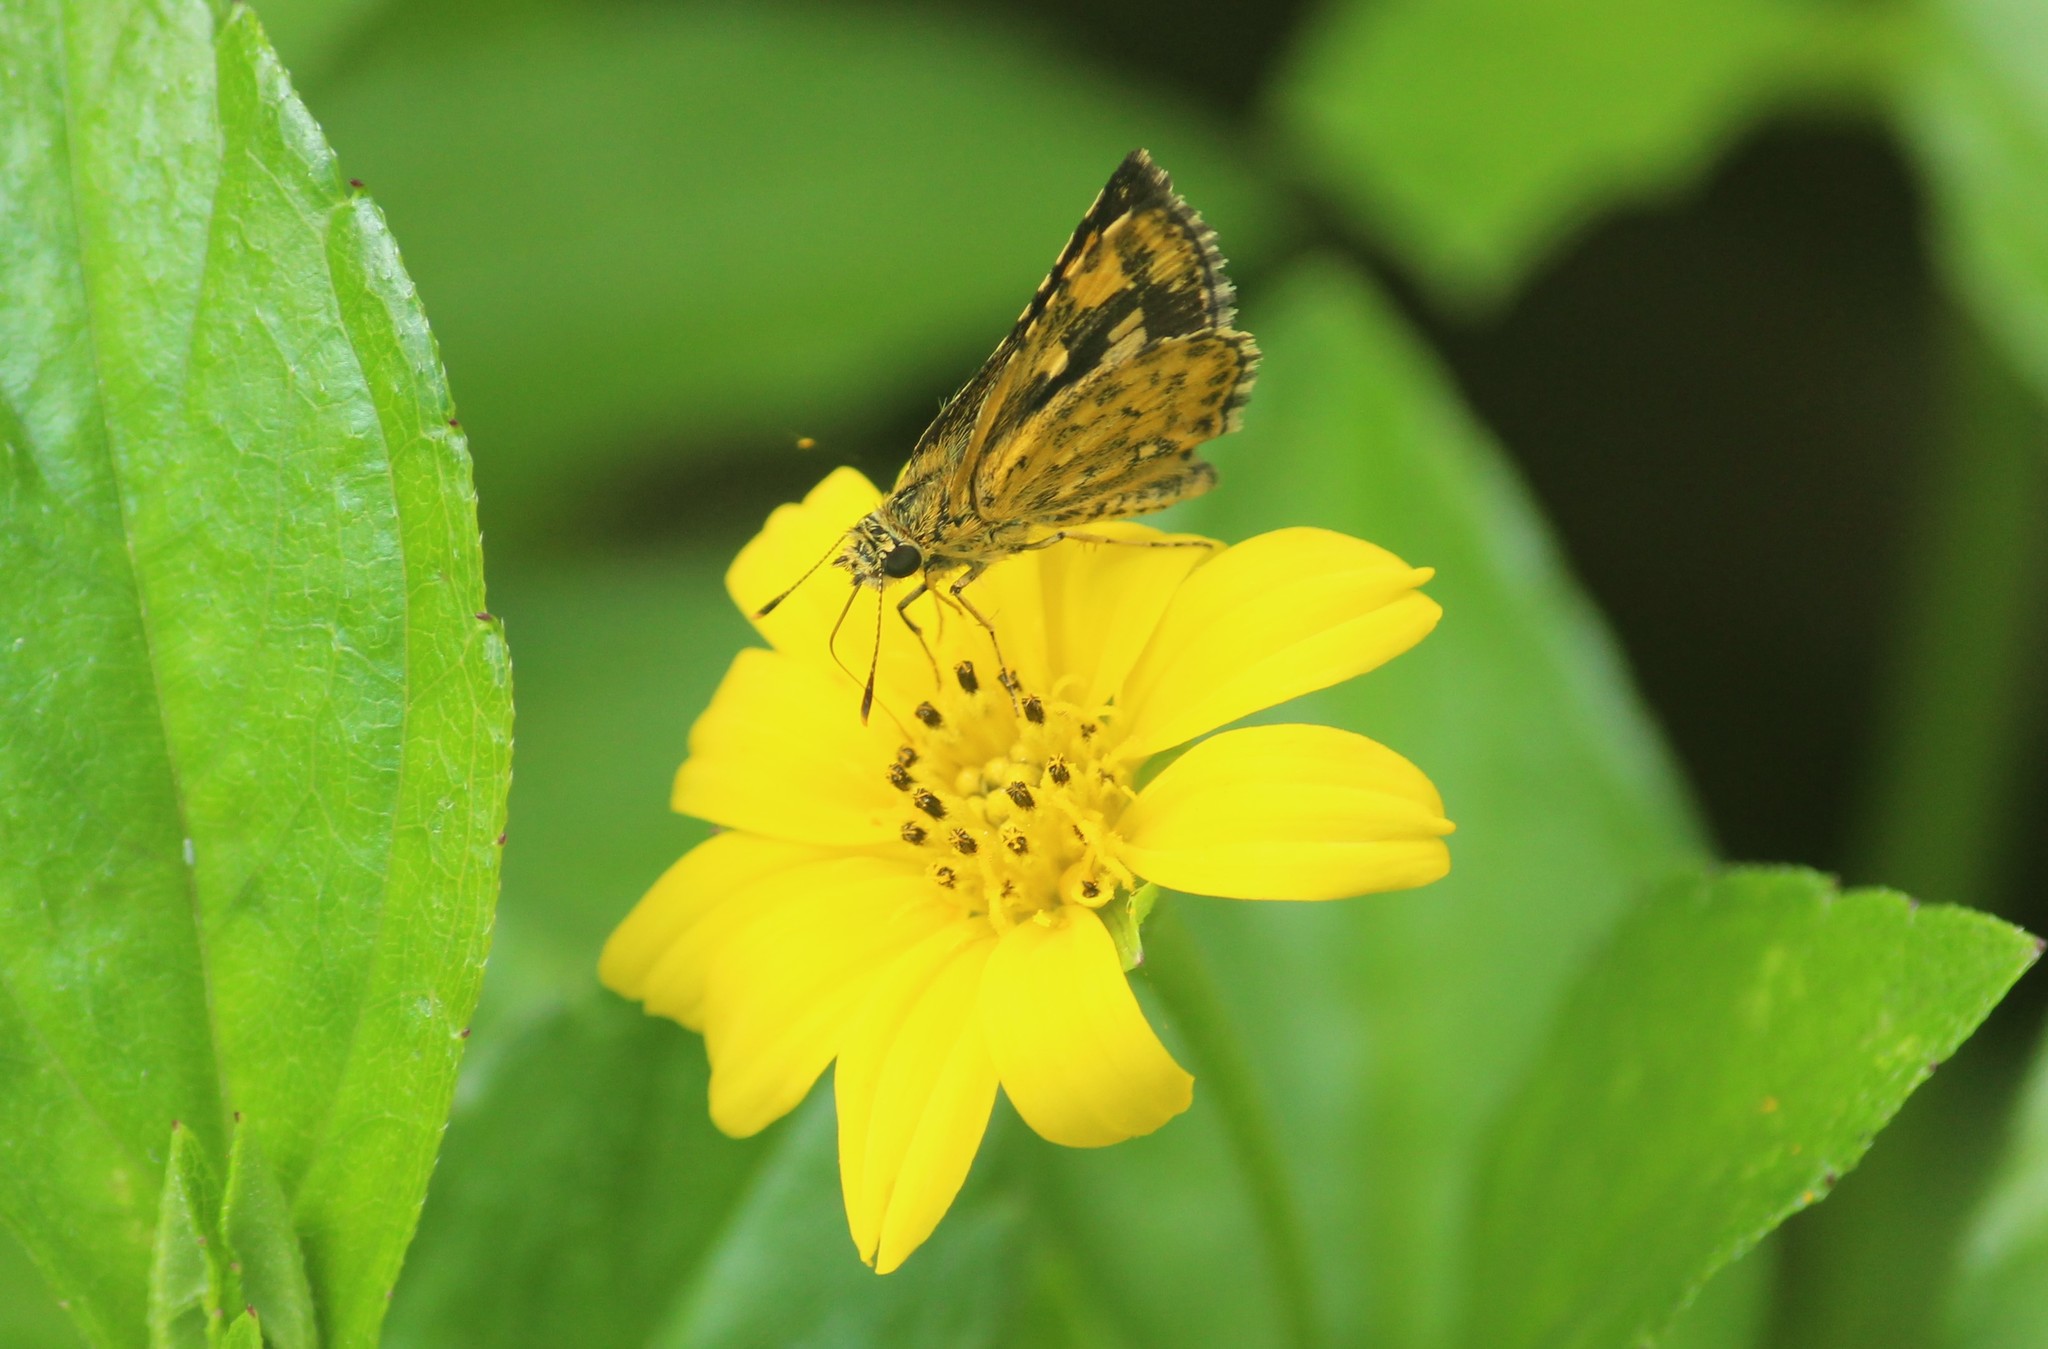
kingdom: Animalia
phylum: Arthropoda
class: Insecta
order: Lepidoptera
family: Hesperiidae
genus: Ampittia
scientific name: Ampittia dioscorides
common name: Common bush hopper
